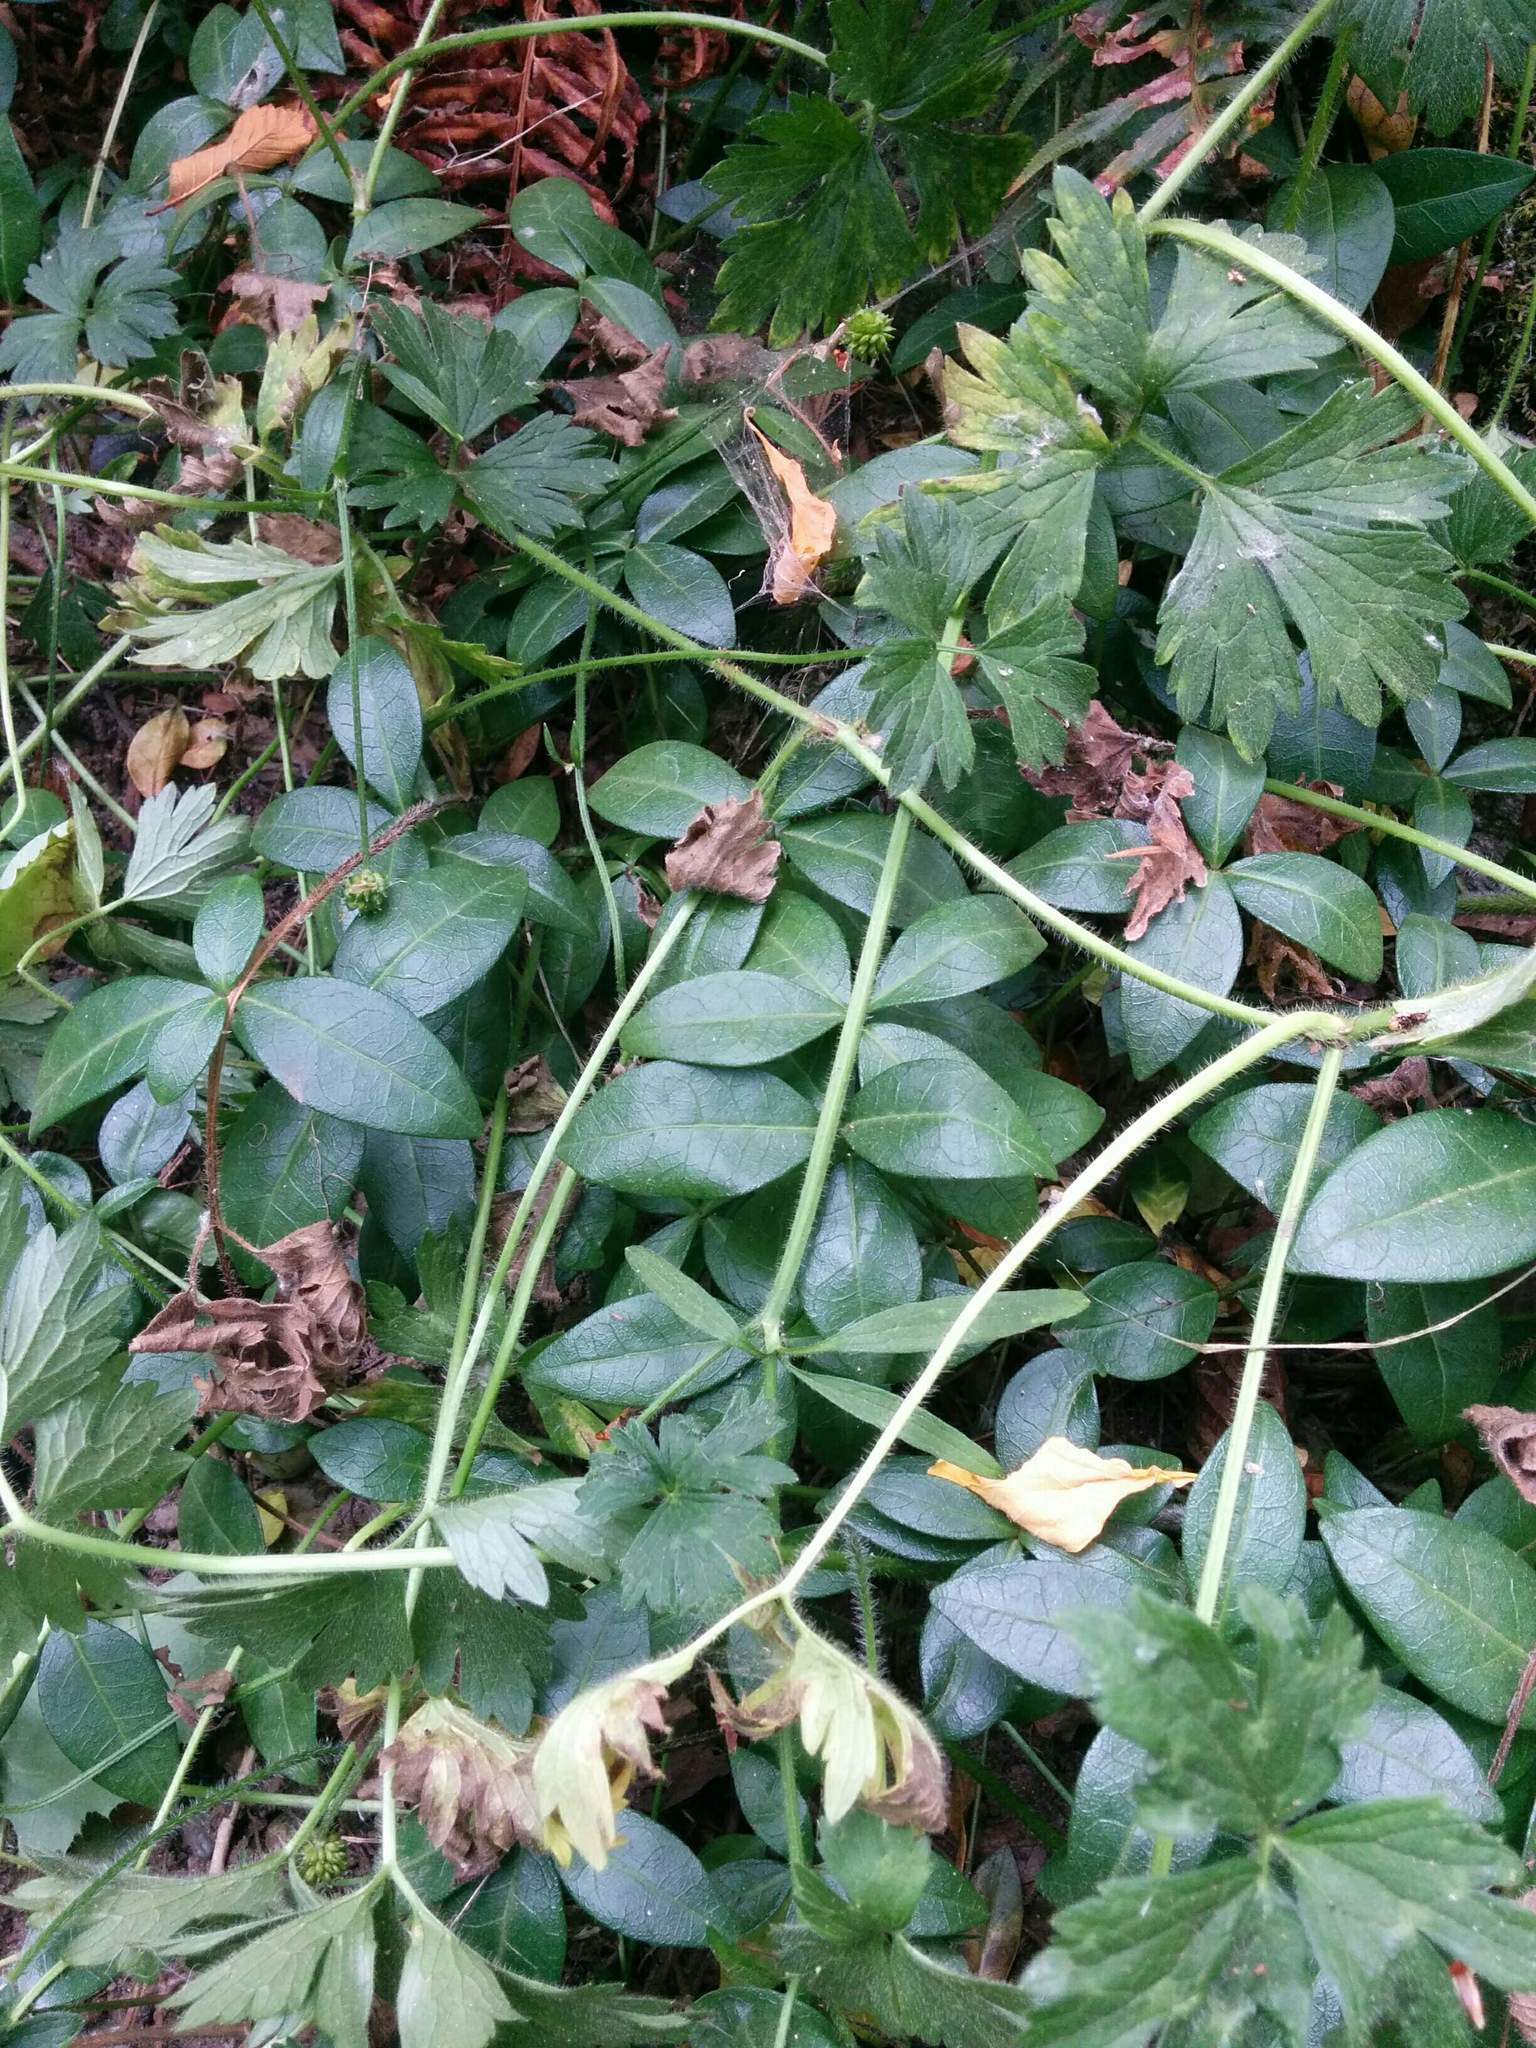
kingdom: Plantae
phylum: Tracheophyta
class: Magnoliopsida
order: Gentianales
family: Apocynaceae
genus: Vinca
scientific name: Vinca minor
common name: Lesser periwinkle
